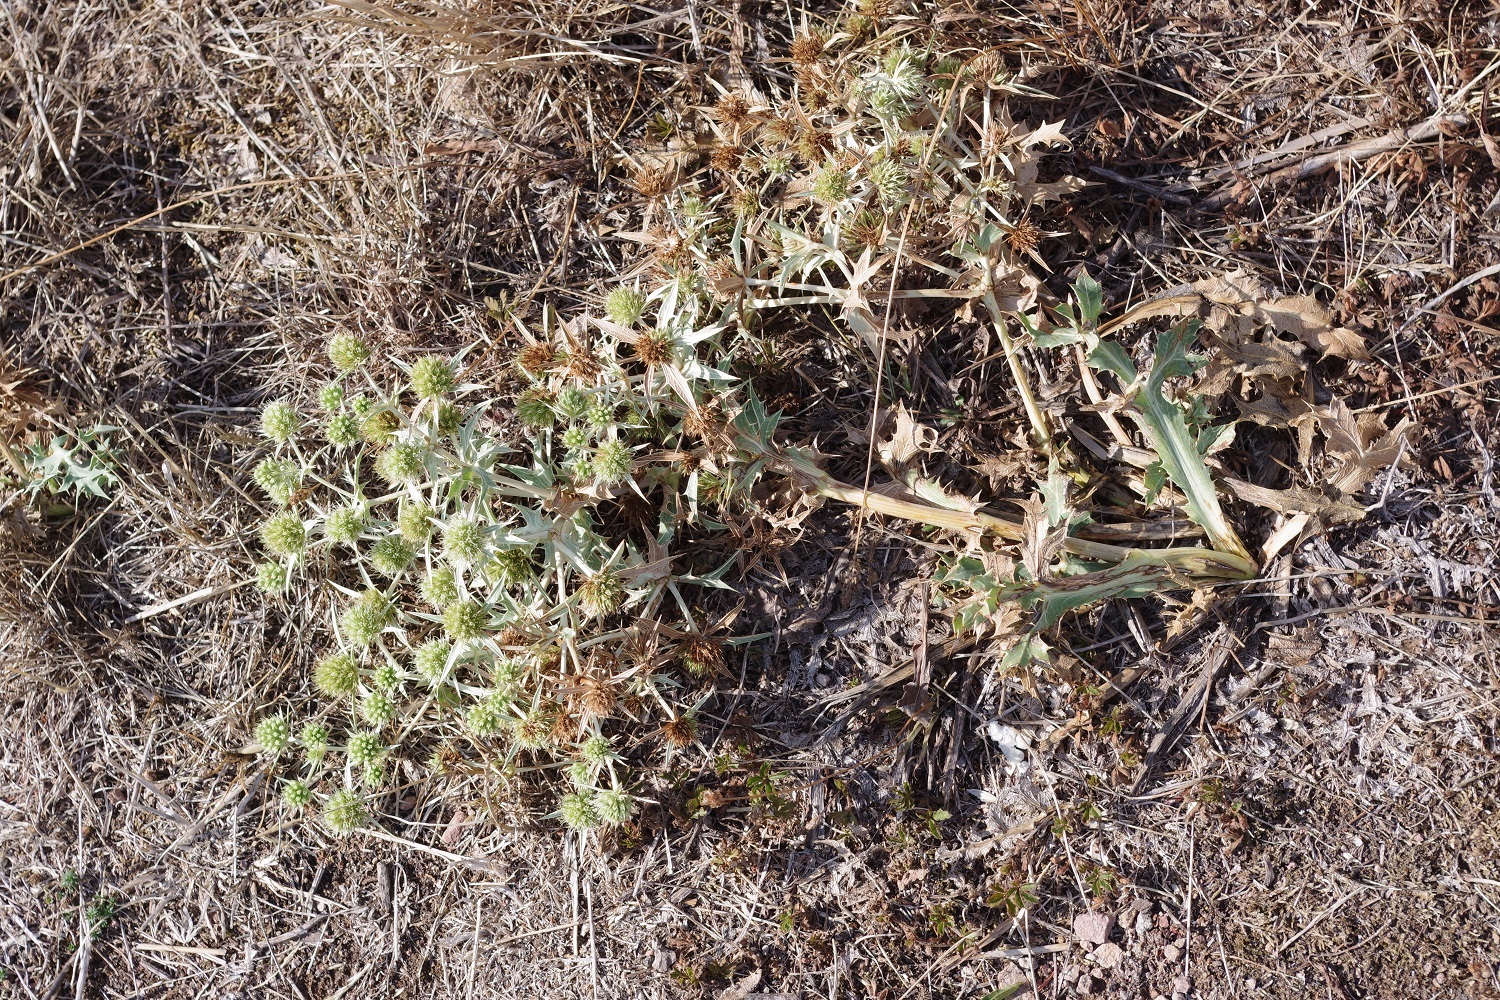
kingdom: Plantae
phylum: Tracheophyta
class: Magnoliopsida
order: Apiales
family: Apiaceae
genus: Eryngium
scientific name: Eryngium campestre
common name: Field eryngo
